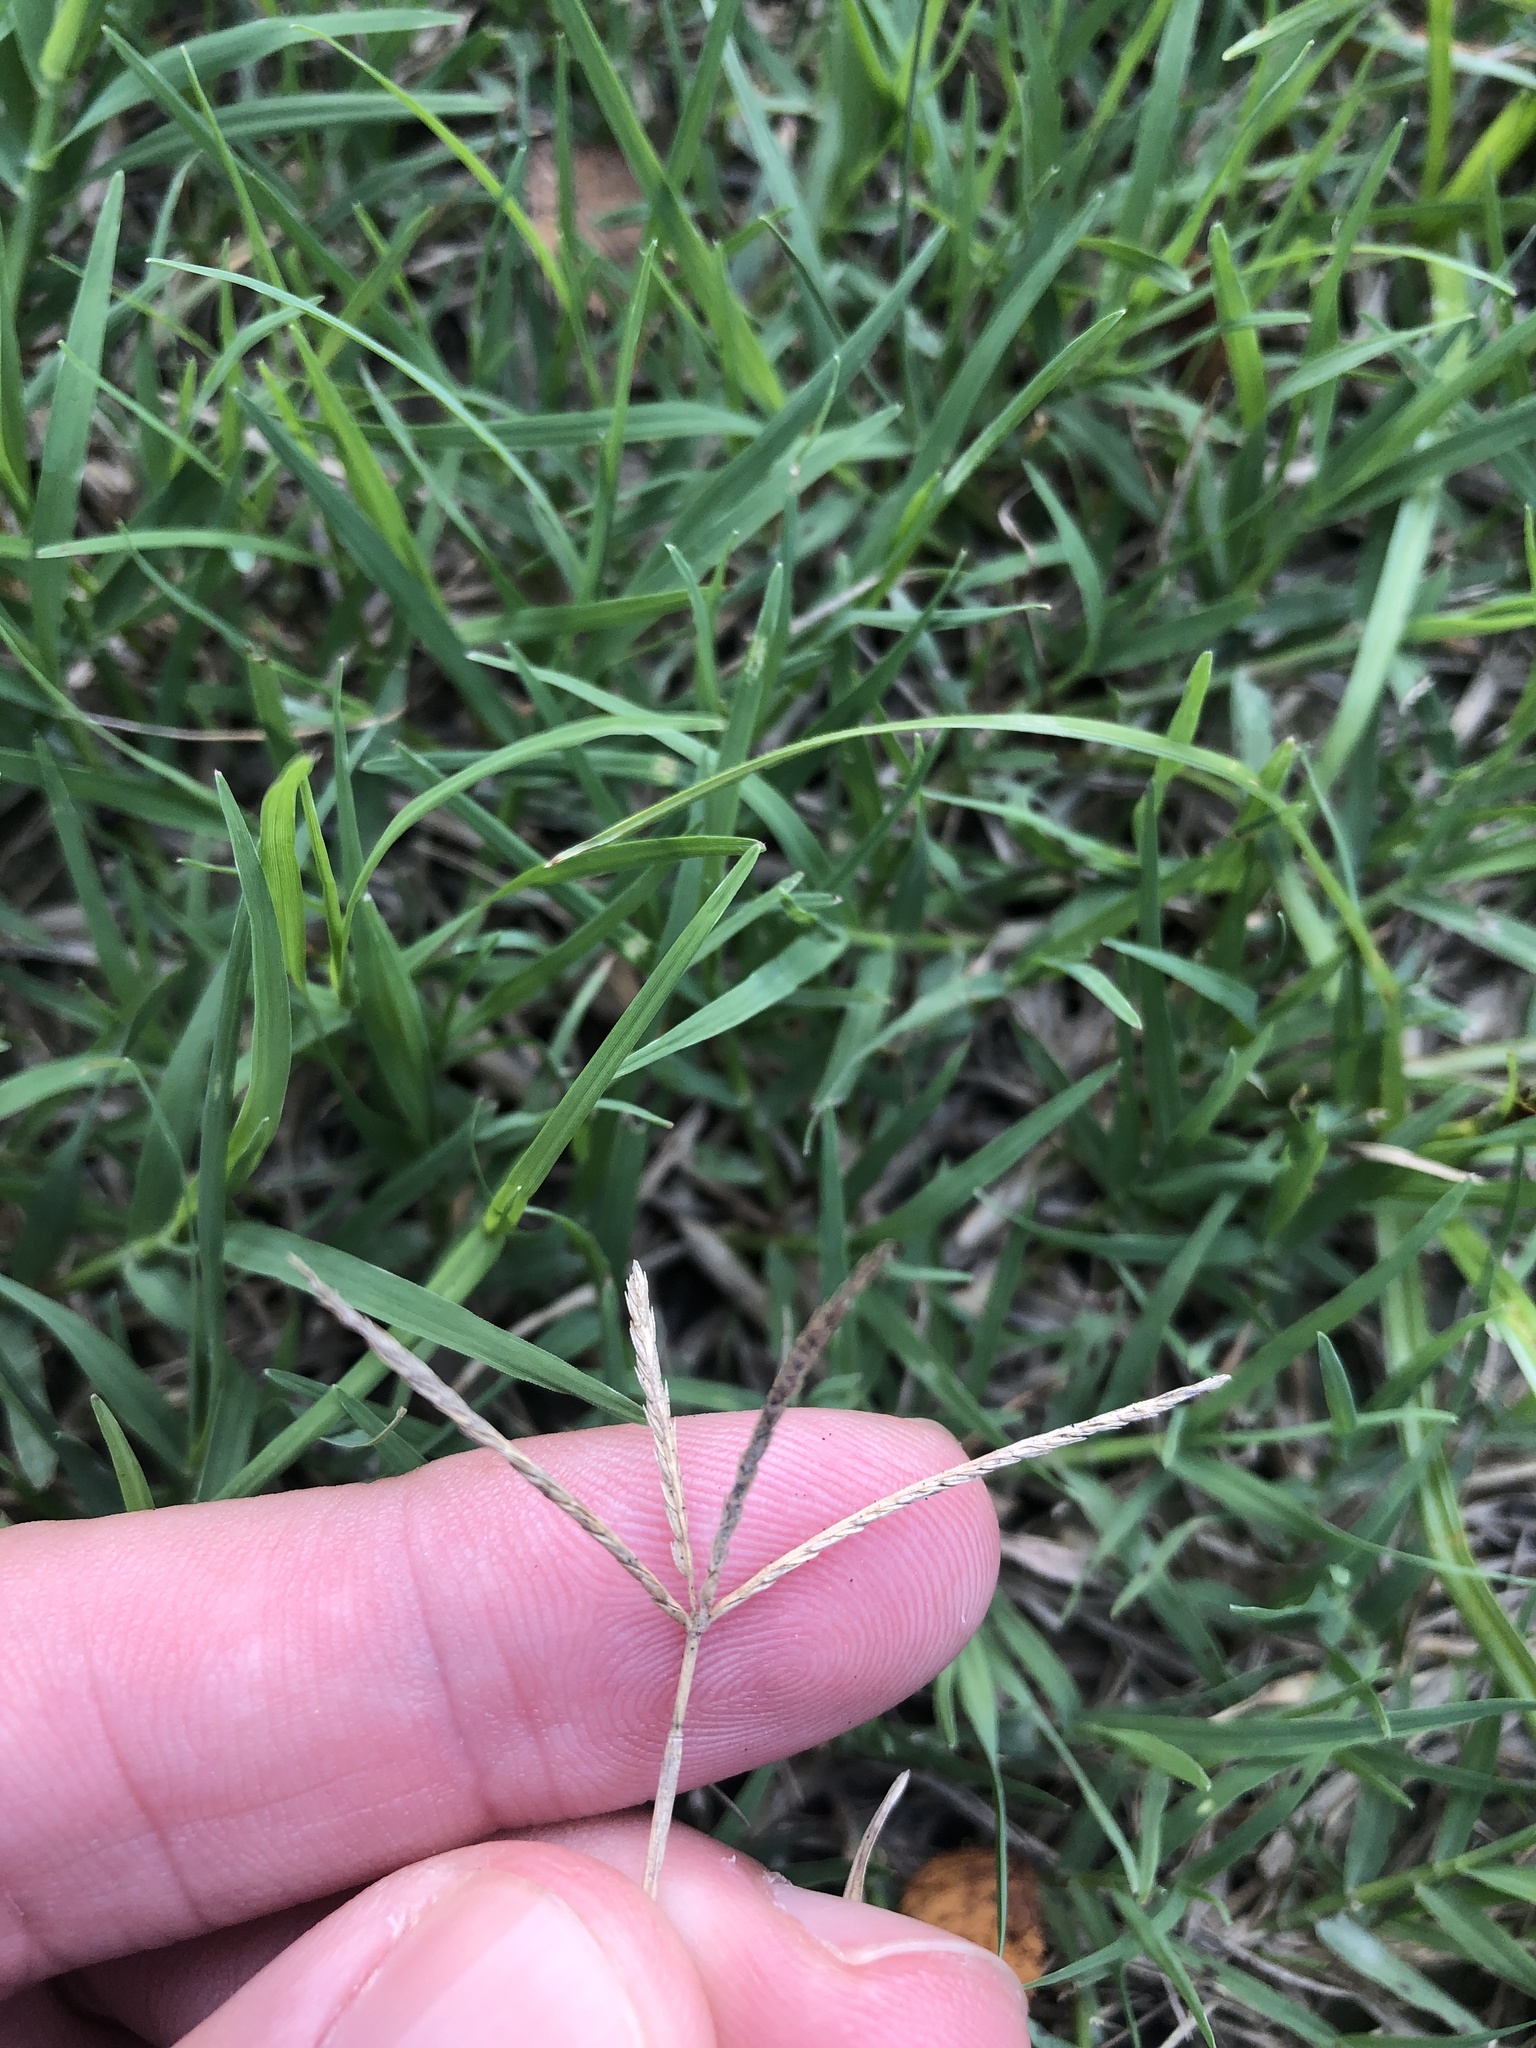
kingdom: Plantae
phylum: Tracheophyta
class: Liliopsida
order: Poales
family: Poaceae
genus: Cynodon
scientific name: Cynodon dactylon
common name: Bermuda grass
